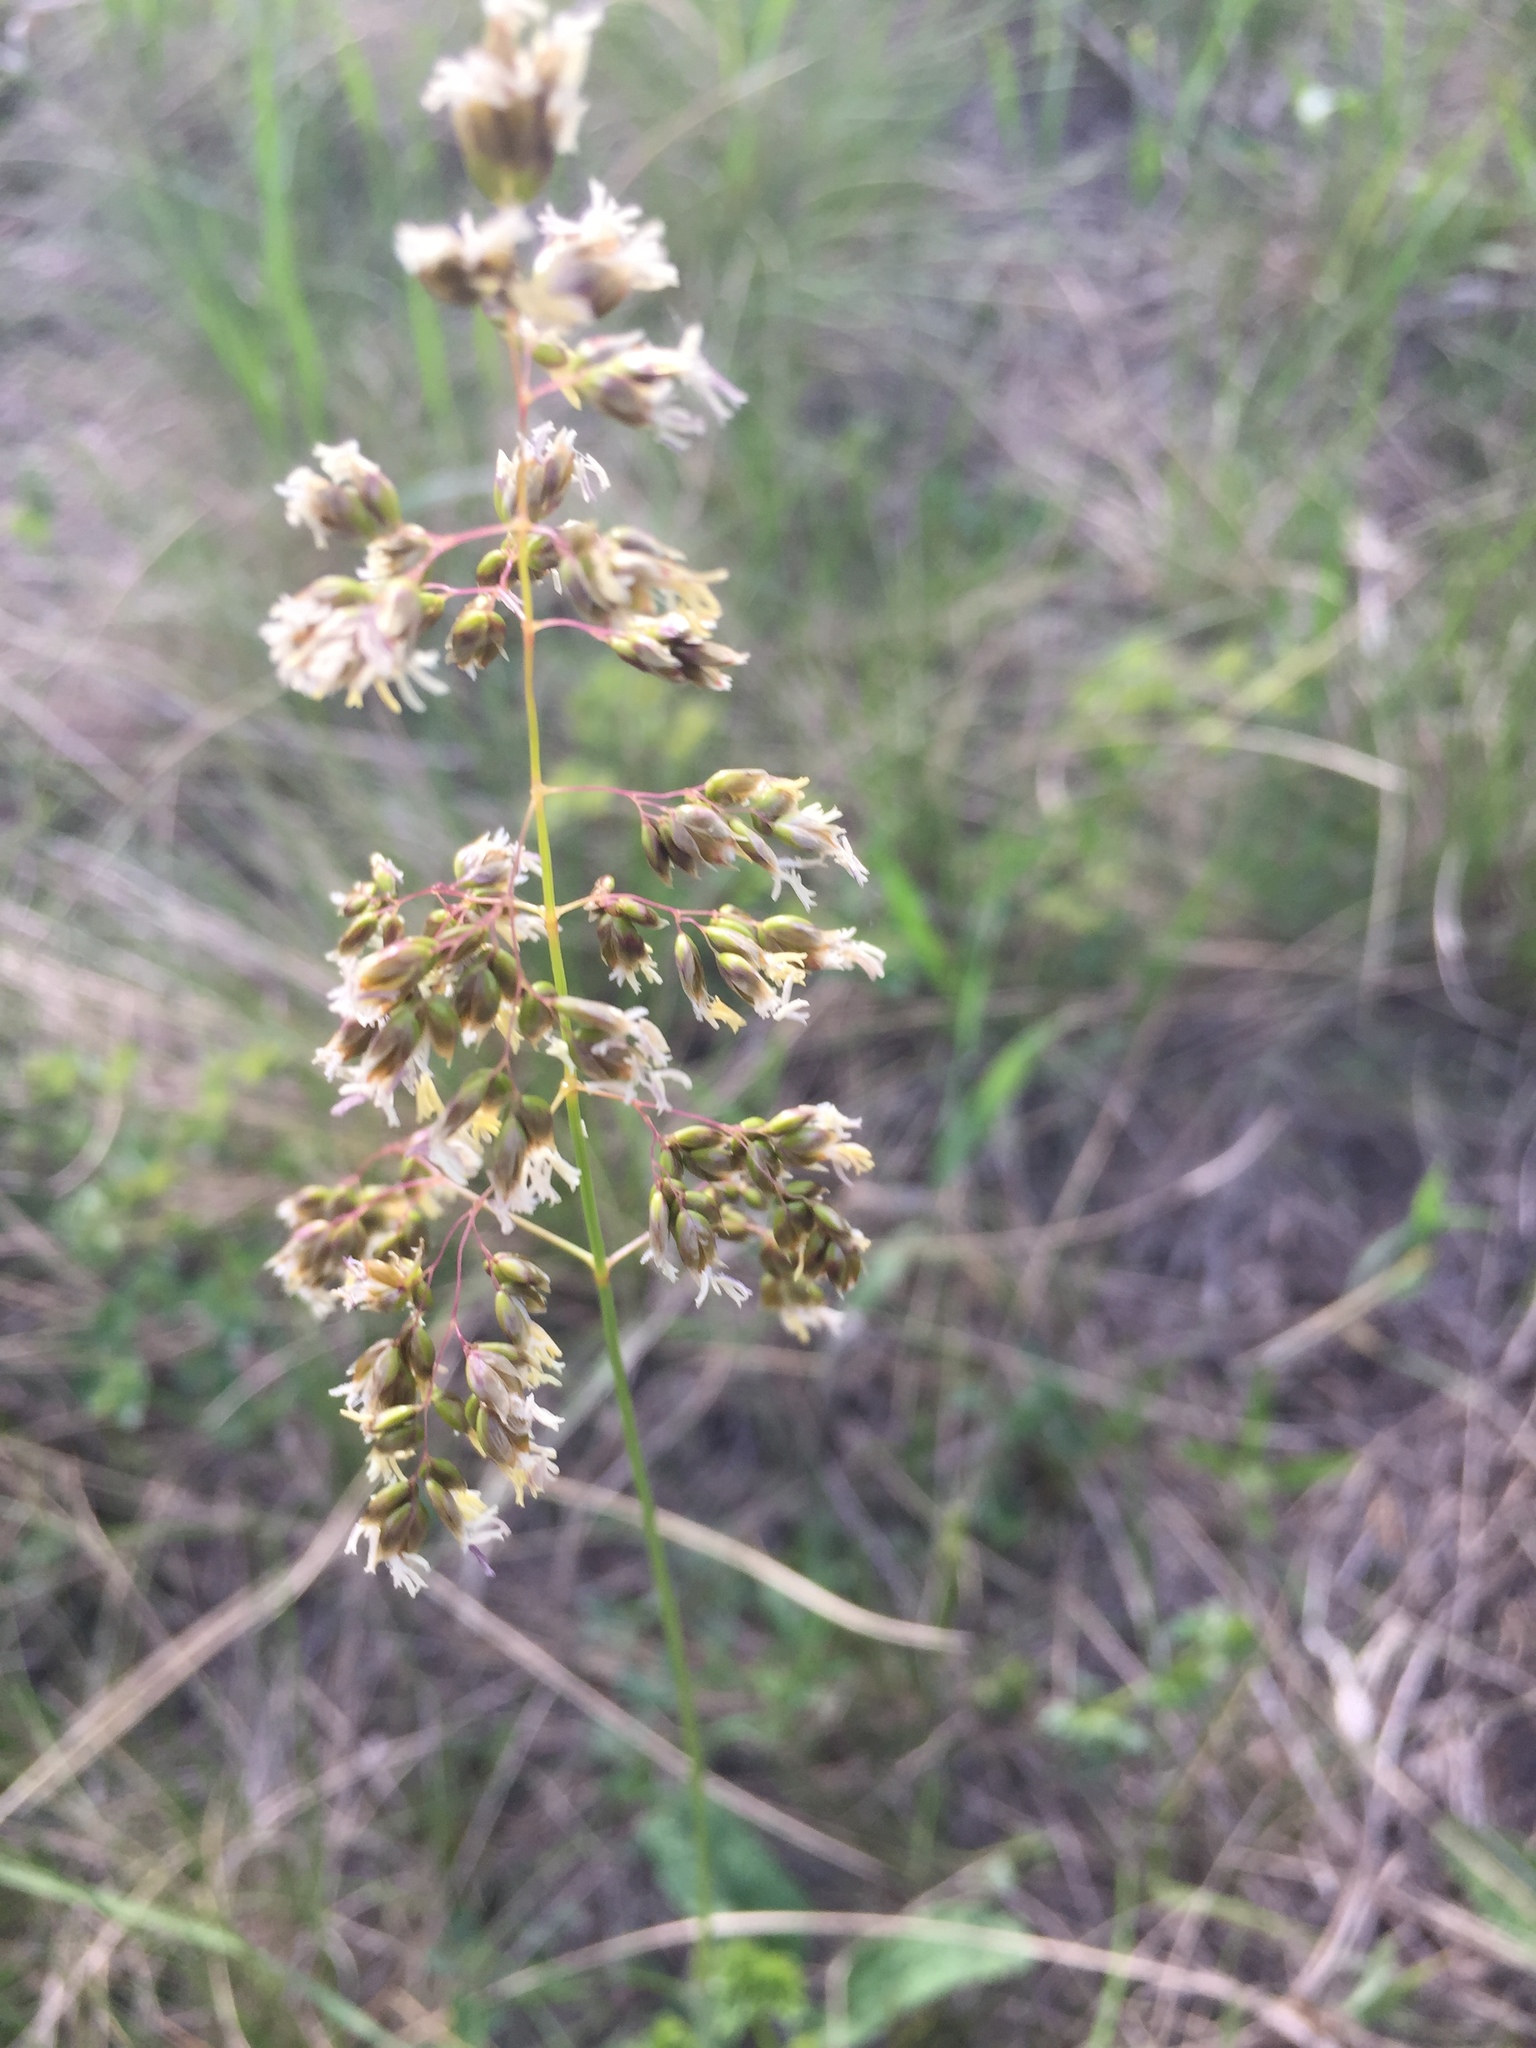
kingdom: Plantae
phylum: Tracheophyta
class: Liliopsida
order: Poales
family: Poaceae
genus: Anthoxanthum
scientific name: Anthoxanthum repens
